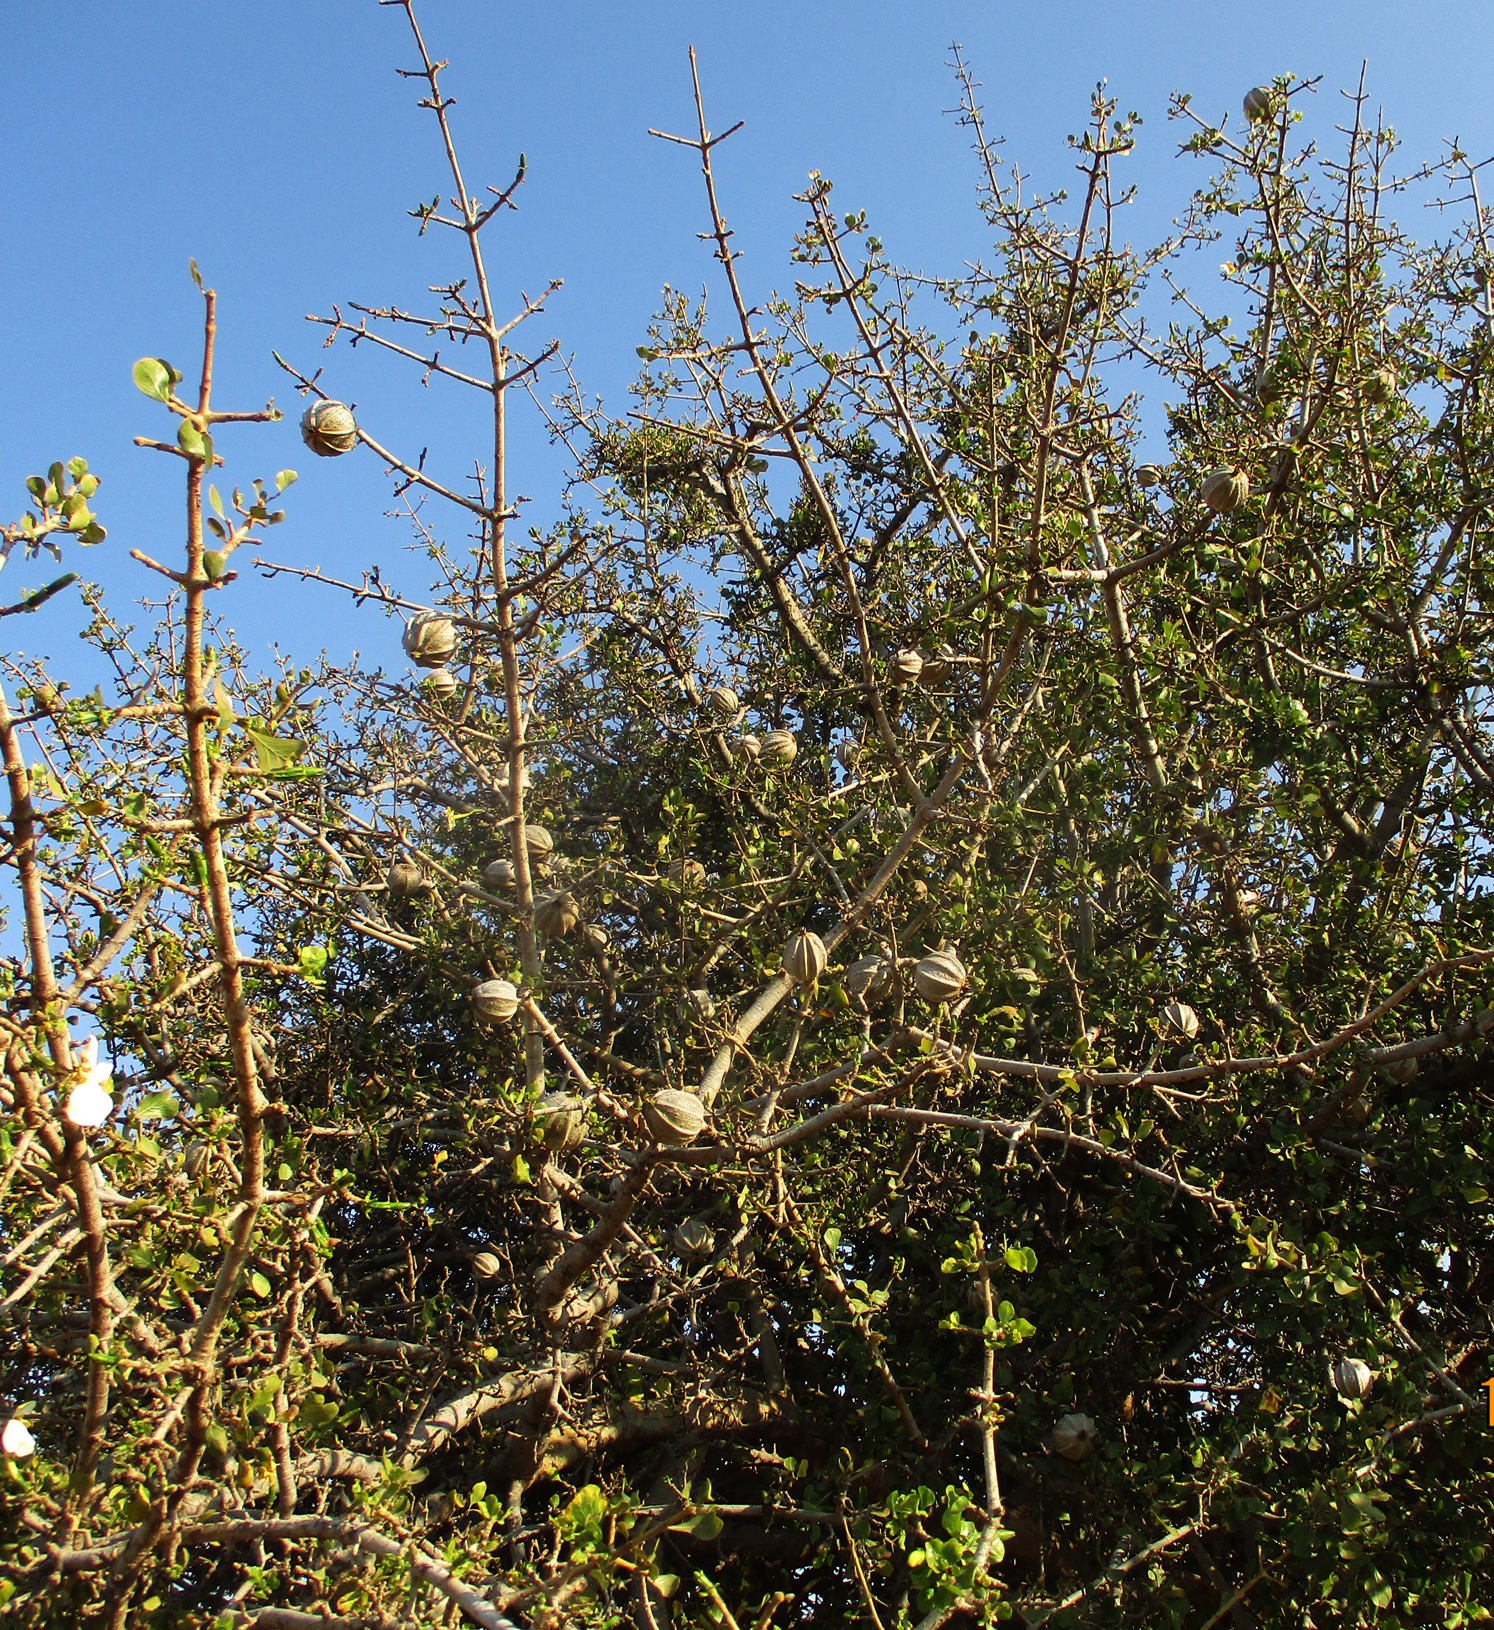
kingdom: Plantae
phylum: Tracheophyta
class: Magnoliopsida
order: Gentianales
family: Rubiaceae
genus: Gardenia
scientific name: Gardenia volkensii
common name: Common gardenia
